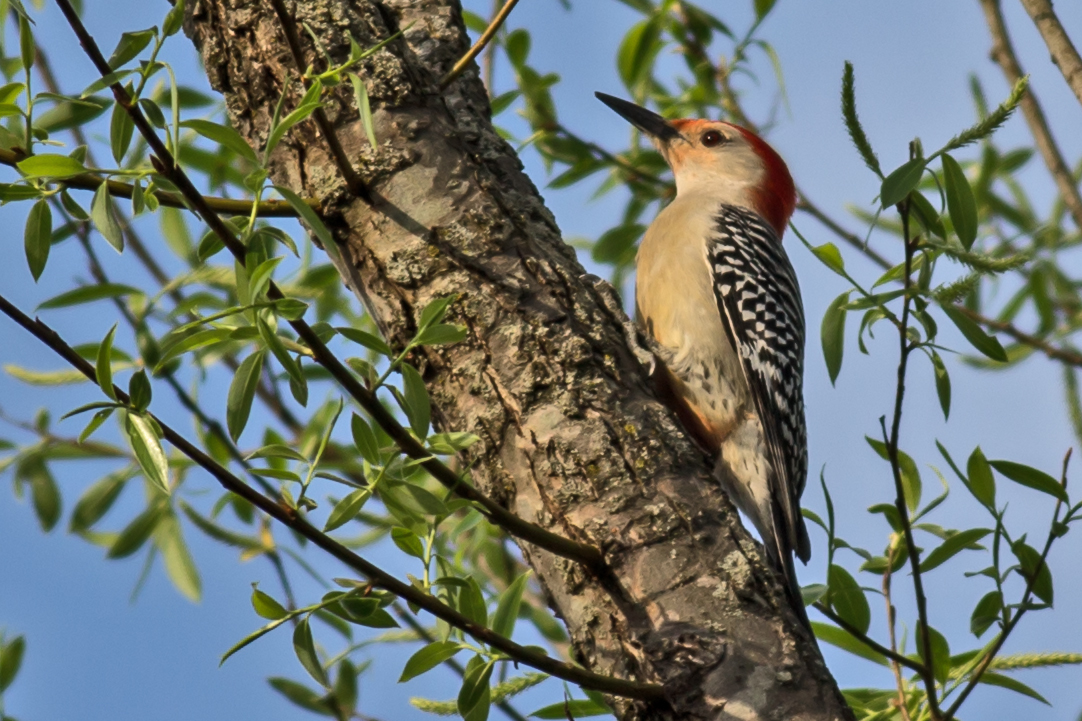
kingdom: Animalia
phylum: Chordata
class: Aves
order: Piciformes
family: Picidae
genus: Melanerpes
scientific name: Melanerpes carolinus
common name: Red-bellied woodpecker
